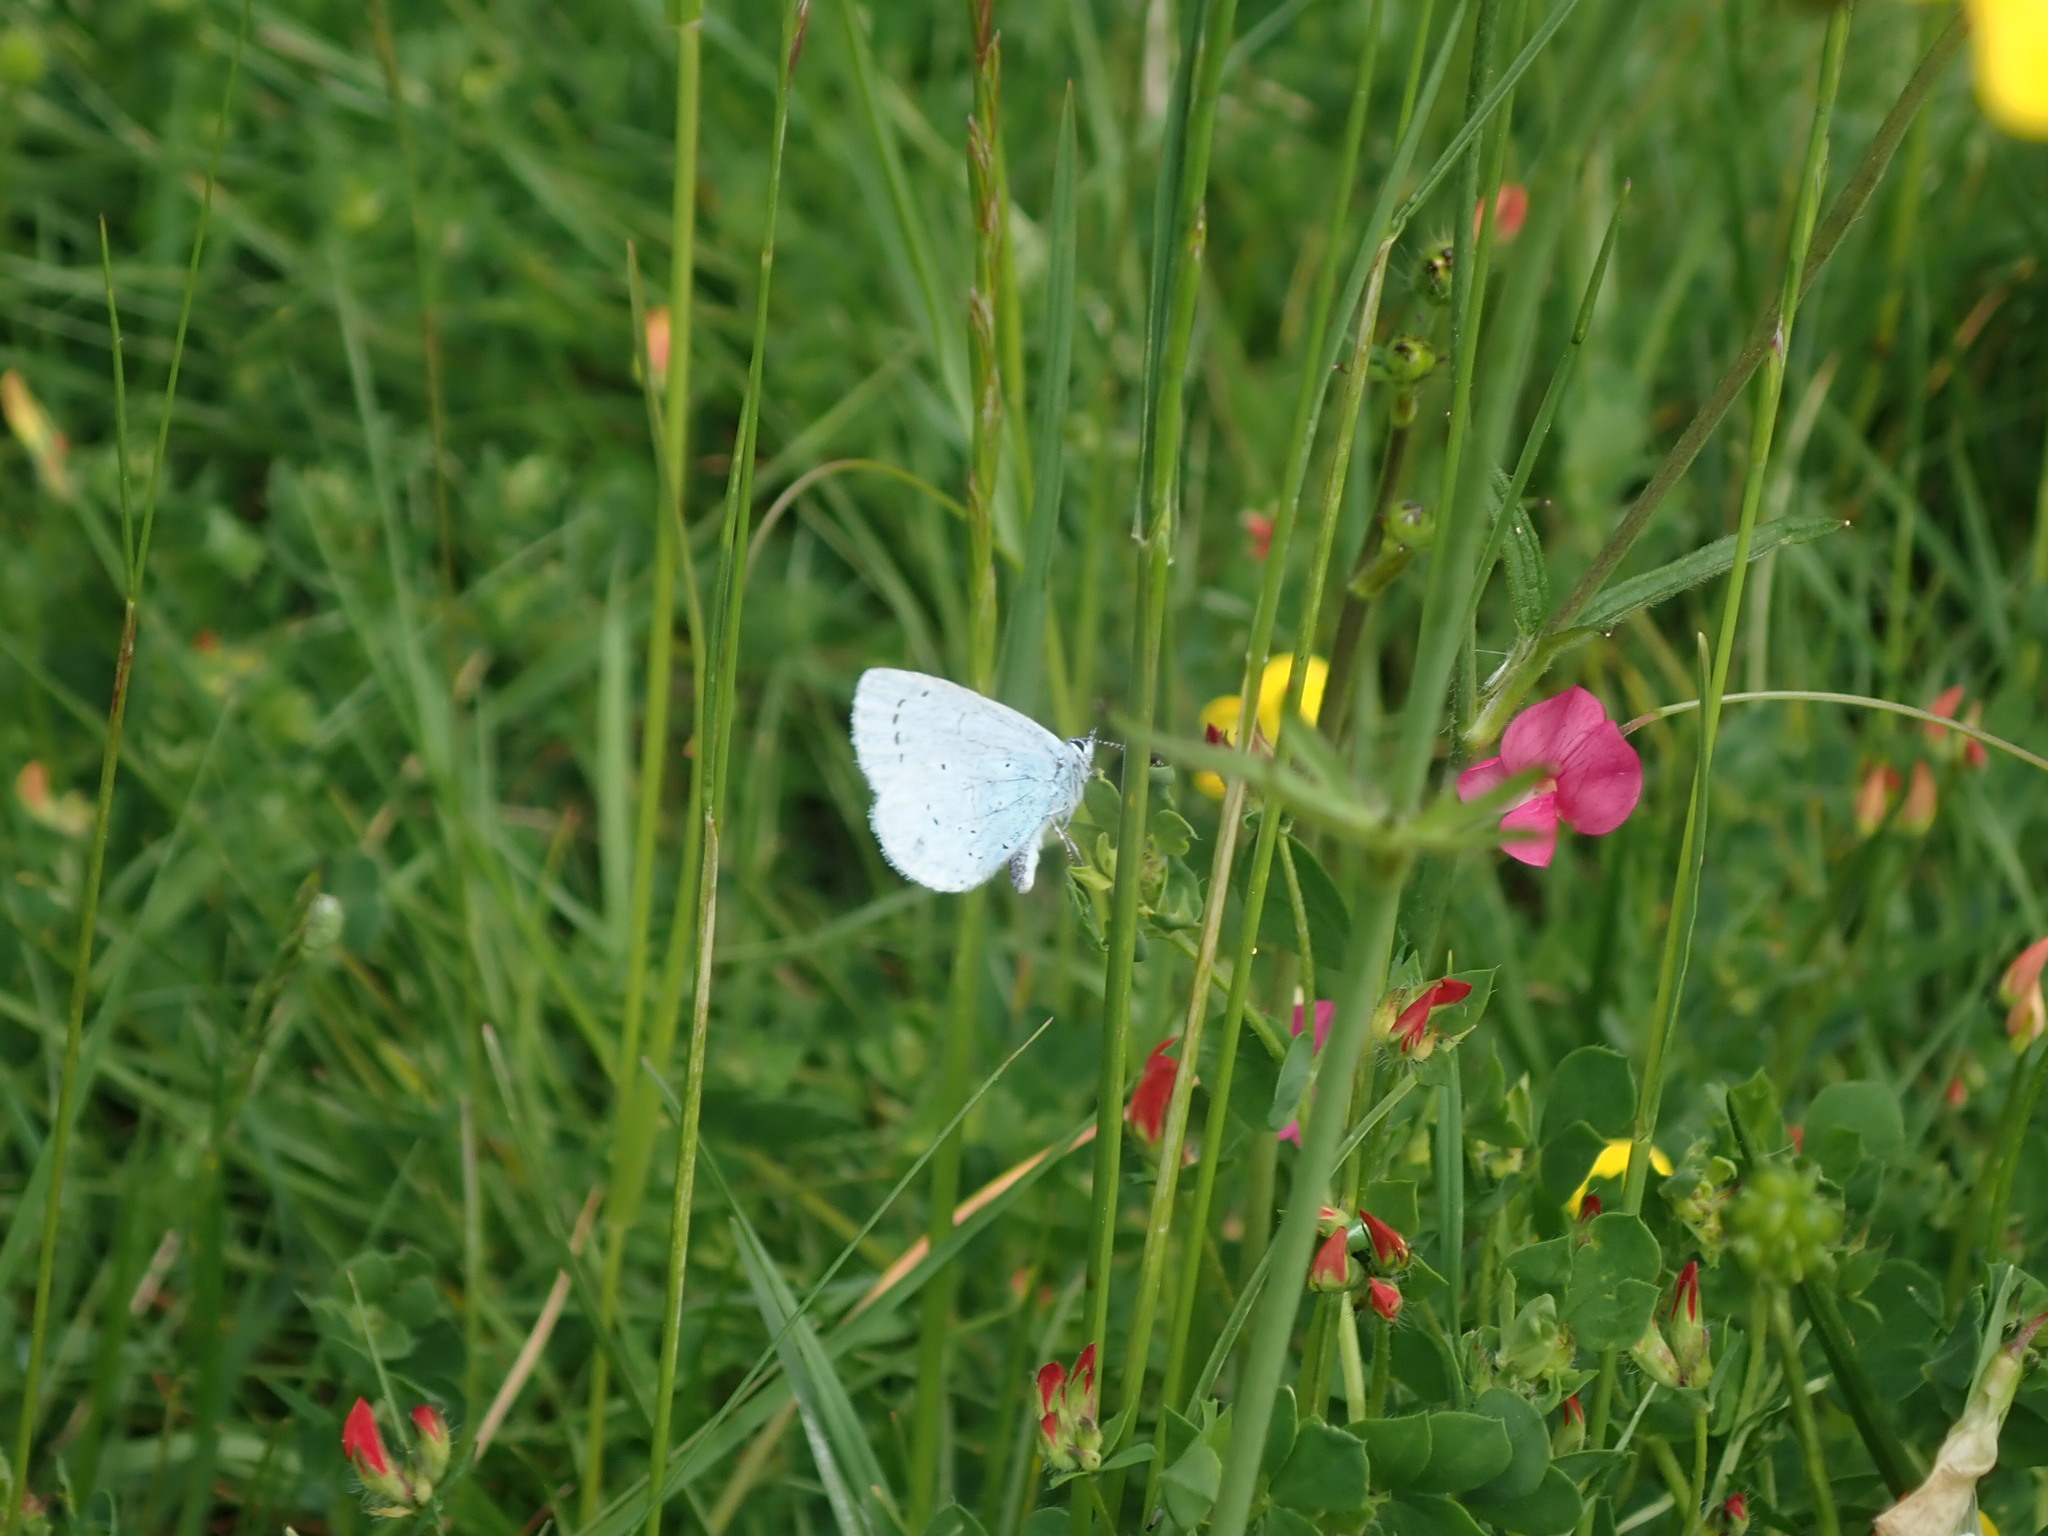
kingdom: Animalia
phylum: Arthropoda
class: Insecta
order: Lepidoptera
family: Lycaenidae
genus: Celastrina
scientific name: Celastrina argiolus
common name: Holly blue
